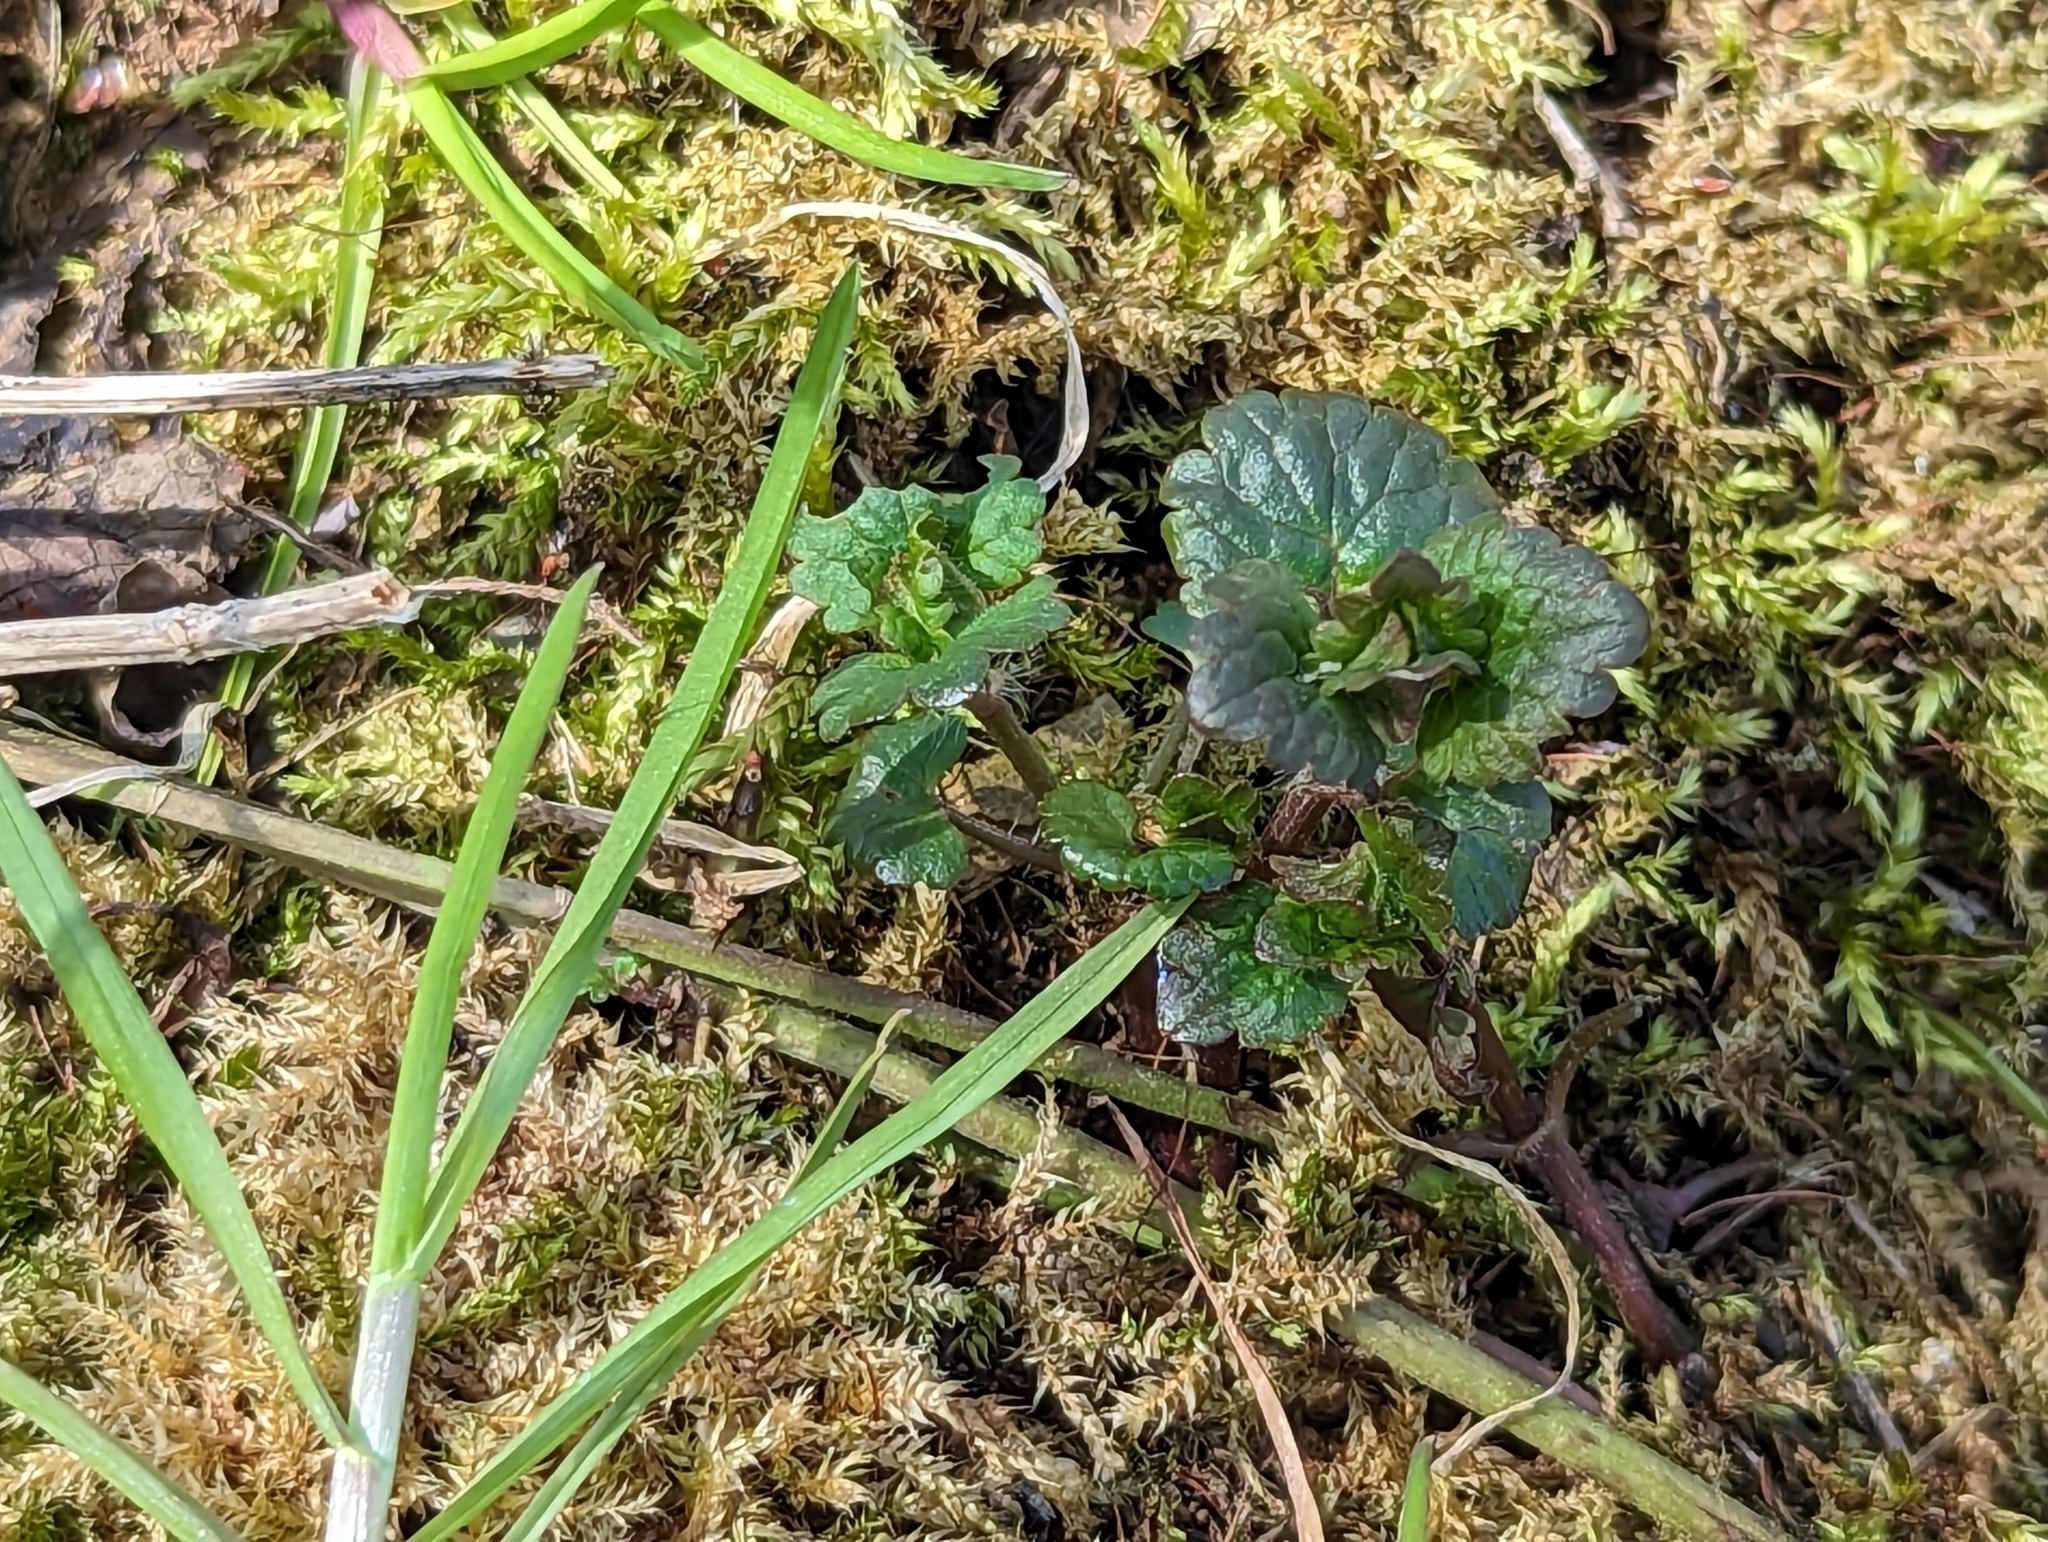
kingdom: Plantae
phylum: Tracheophyta
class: Magnoliopsida
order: Lamiales
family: Lamiaceae
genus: Glechoma
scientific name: Glechoma hederacea
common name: Ground ivy
